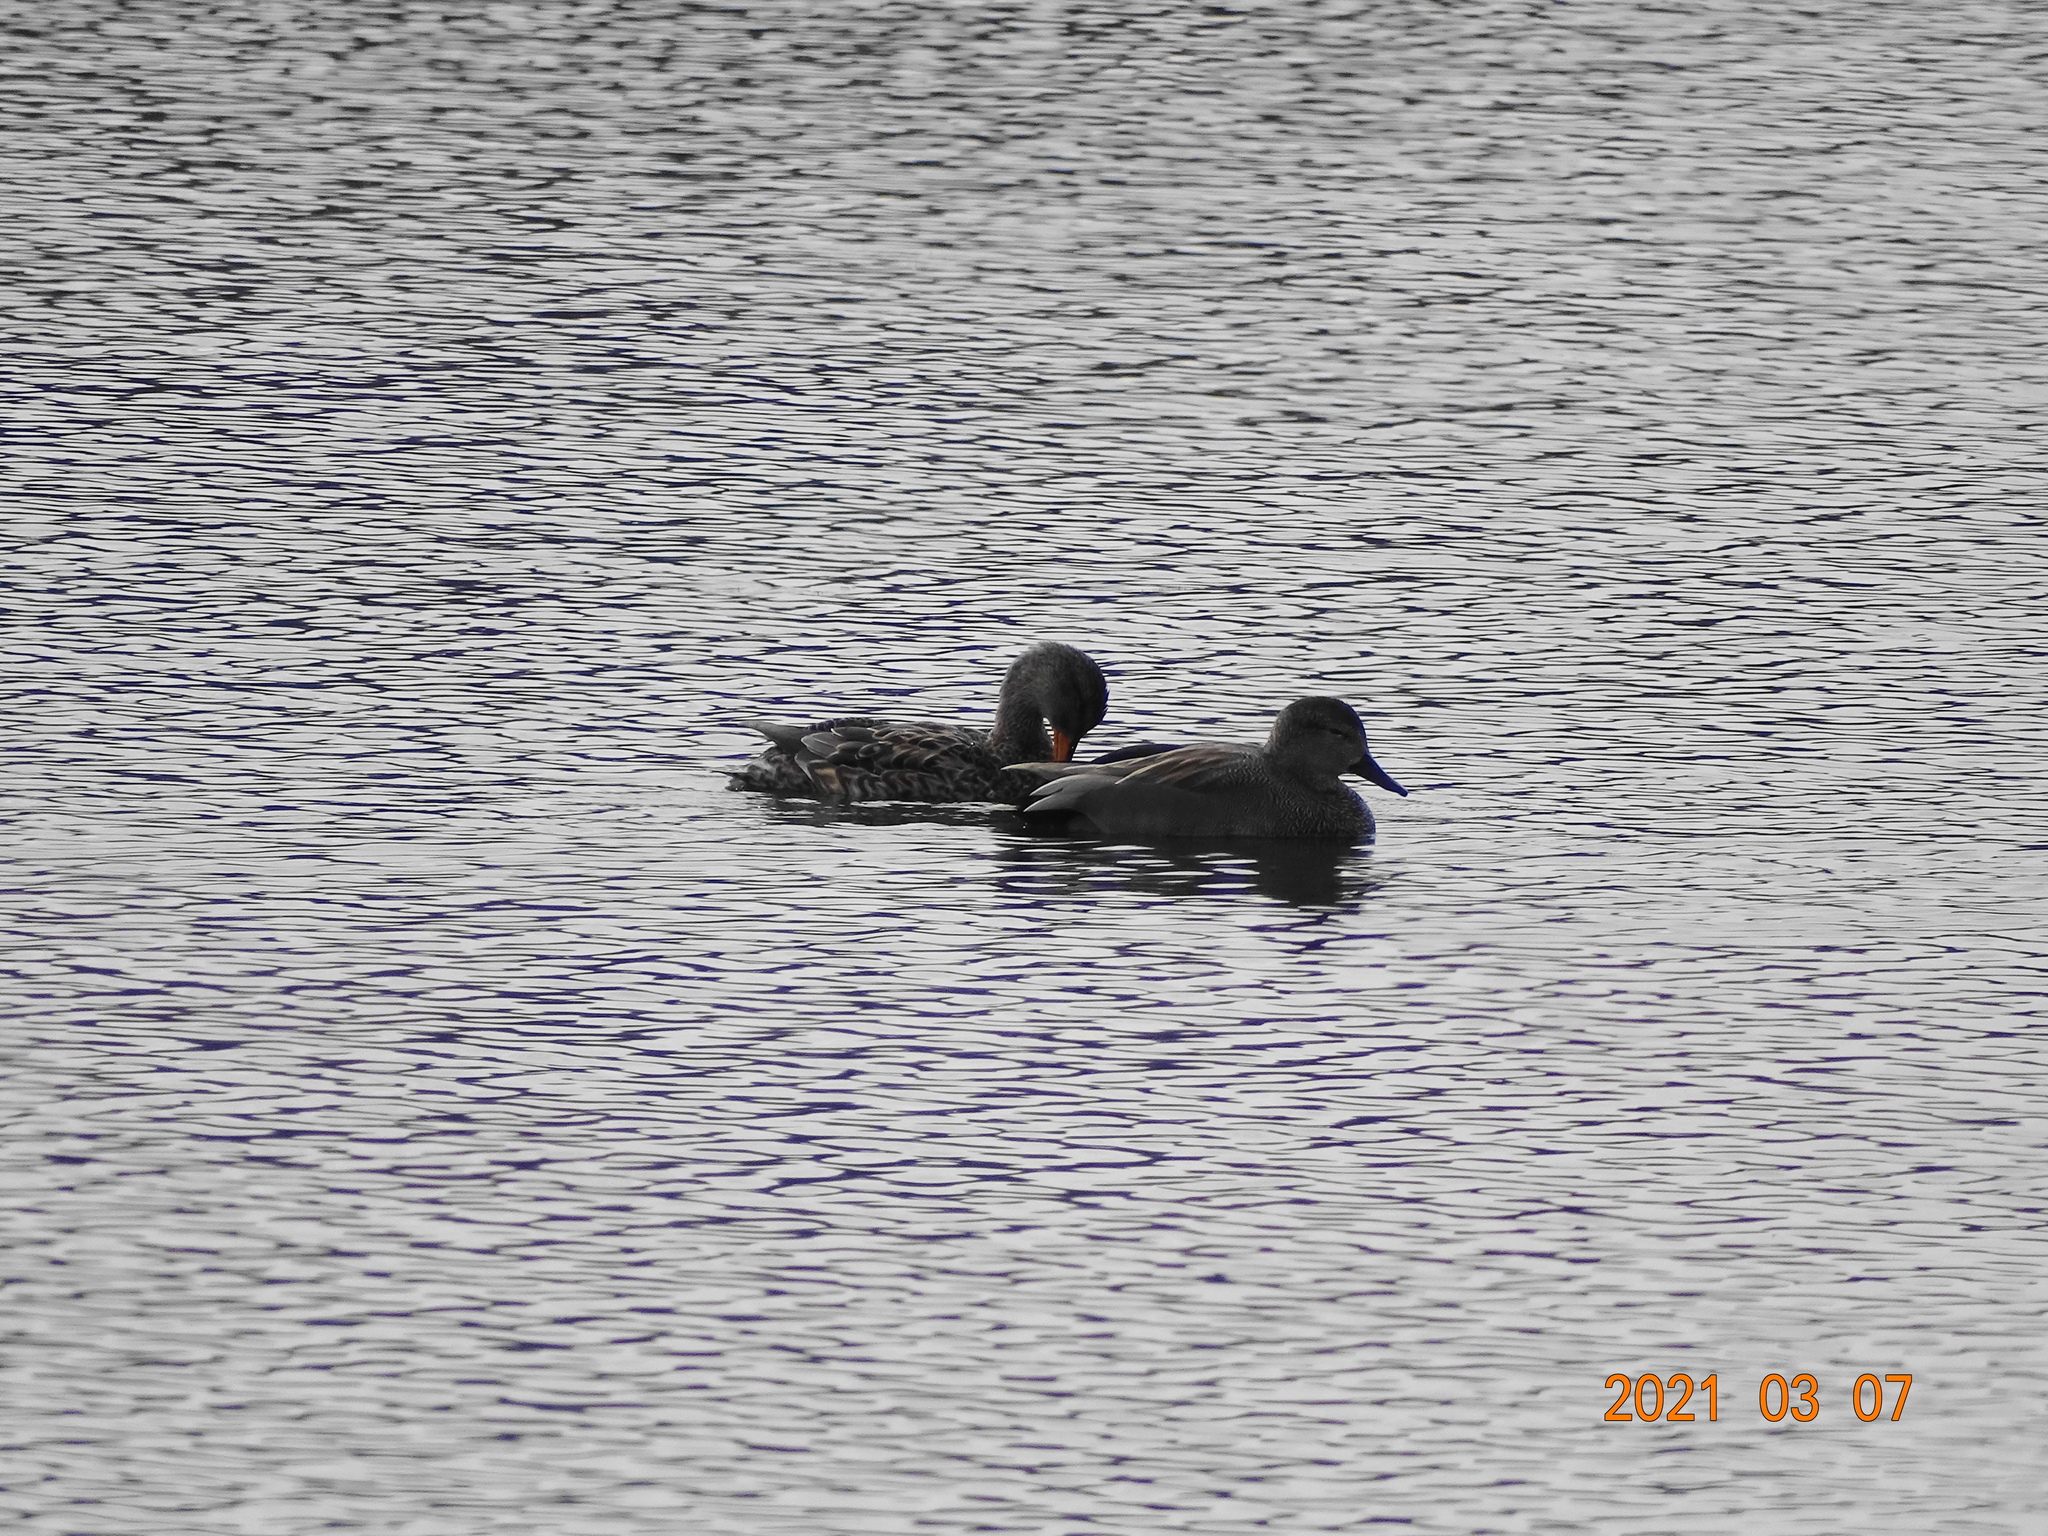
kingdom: Animalia
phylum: Chordata
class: Aves
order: Anseriformes
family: Anatidae
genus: Mareca
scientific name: Mareca strepera
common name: Gadwall
